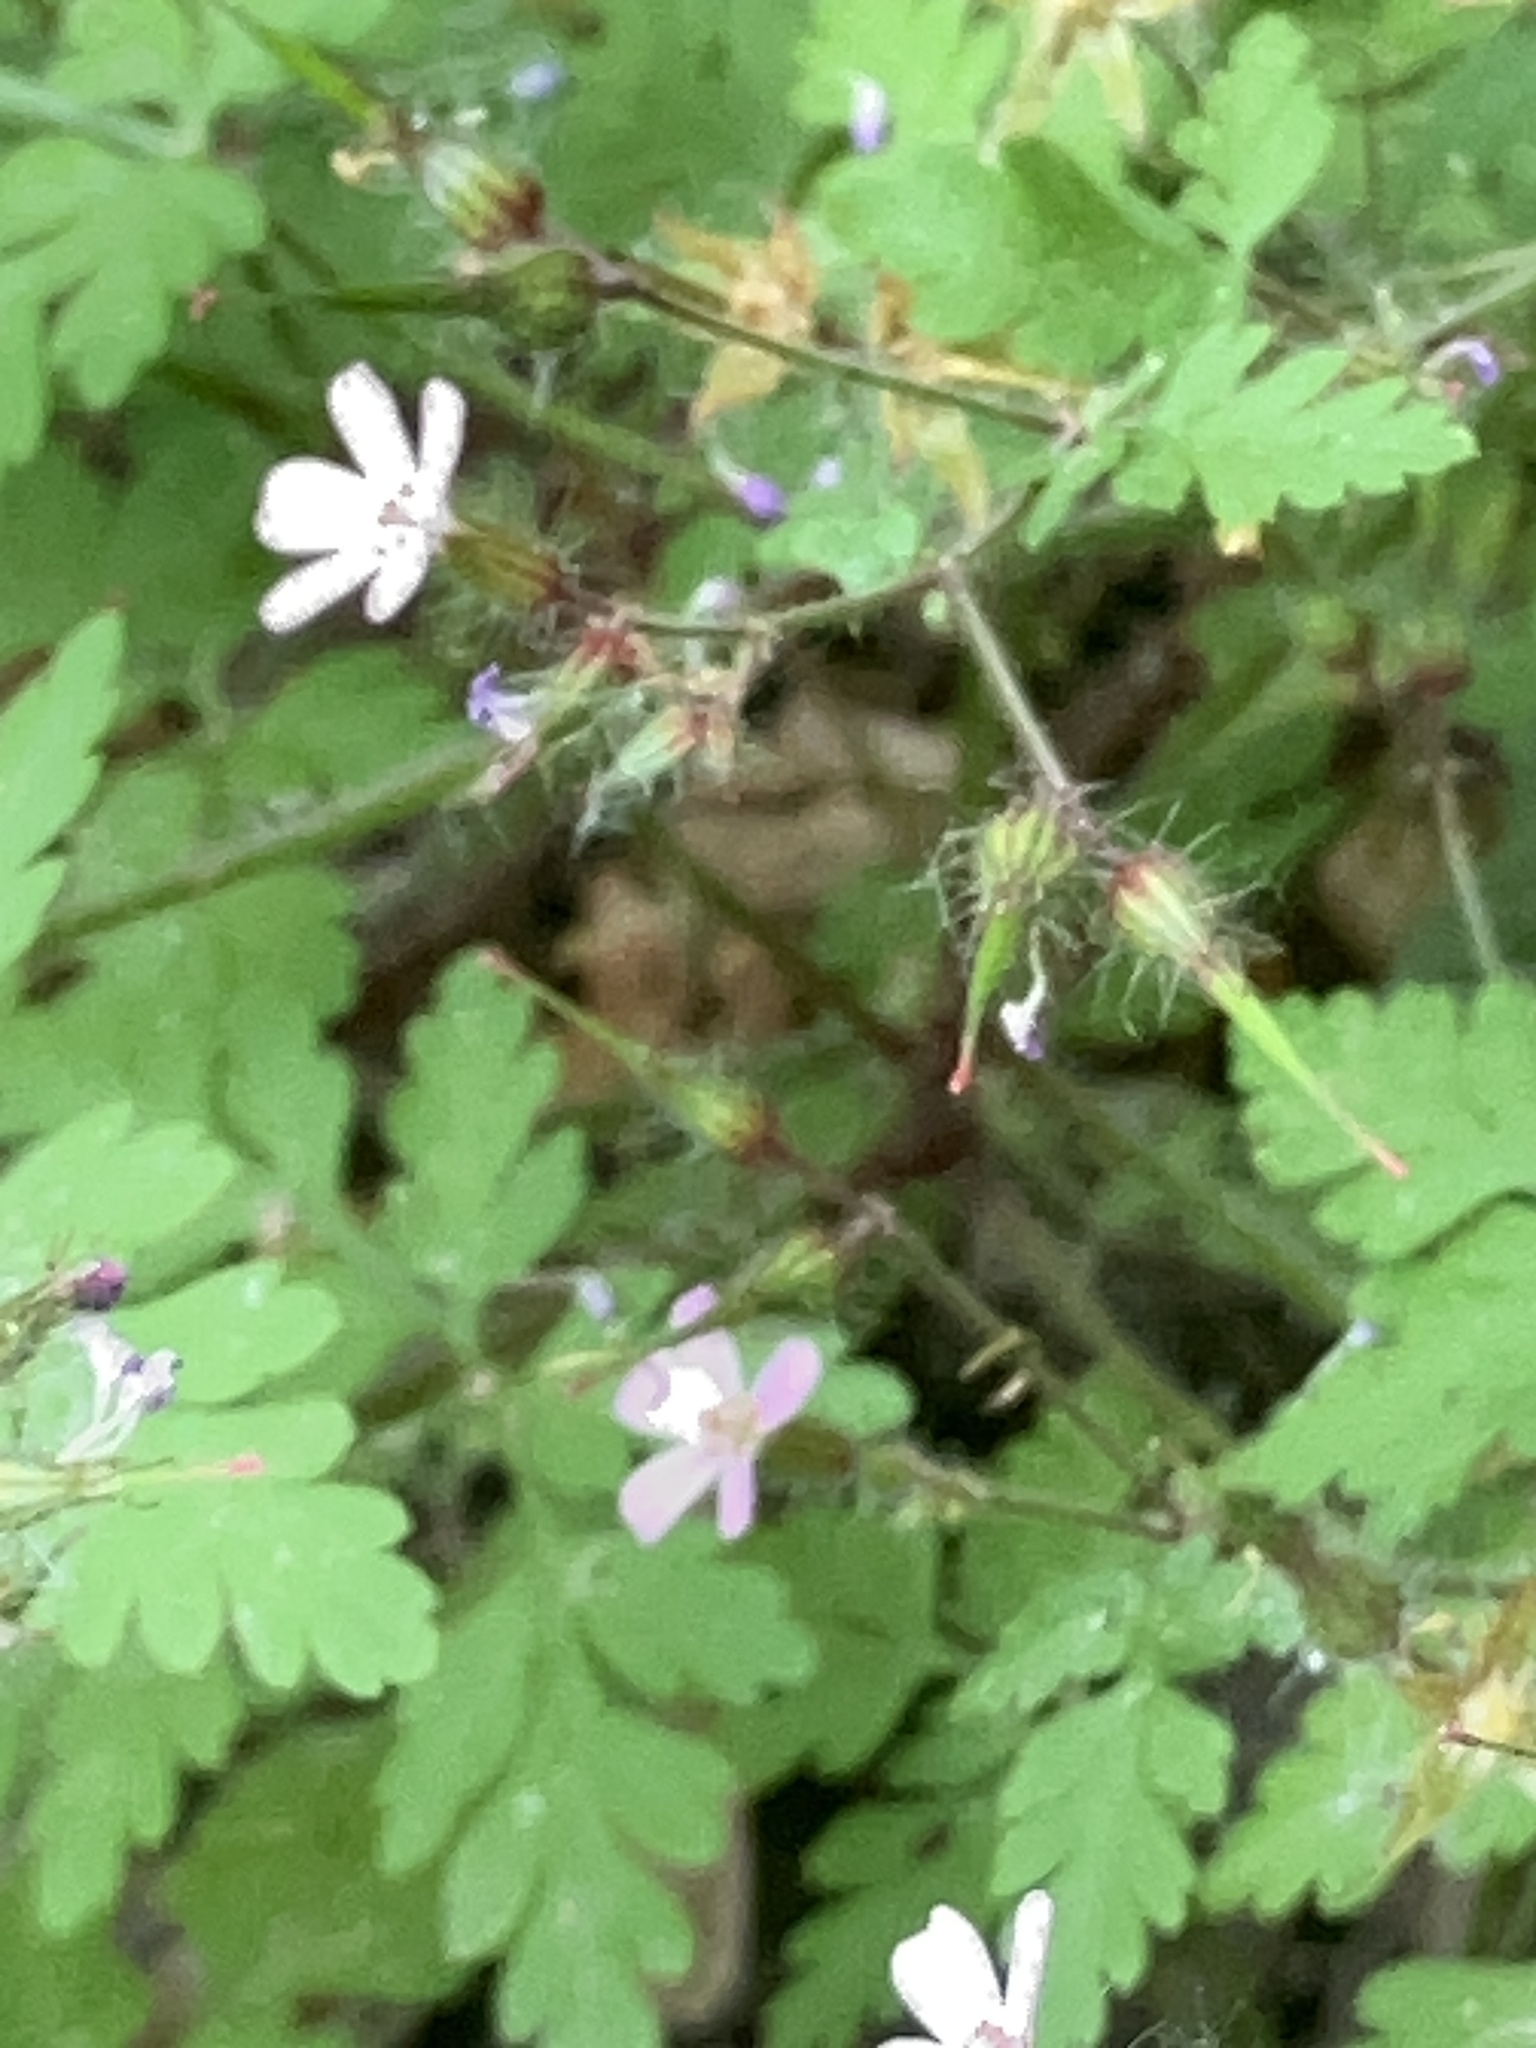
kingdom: Plantae
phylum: Tracheophyta
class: Magnoliopsida
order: Geraniales
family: Geraniaceae
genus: Geranium
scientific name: Geranium robertianum
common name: Herb-robert
